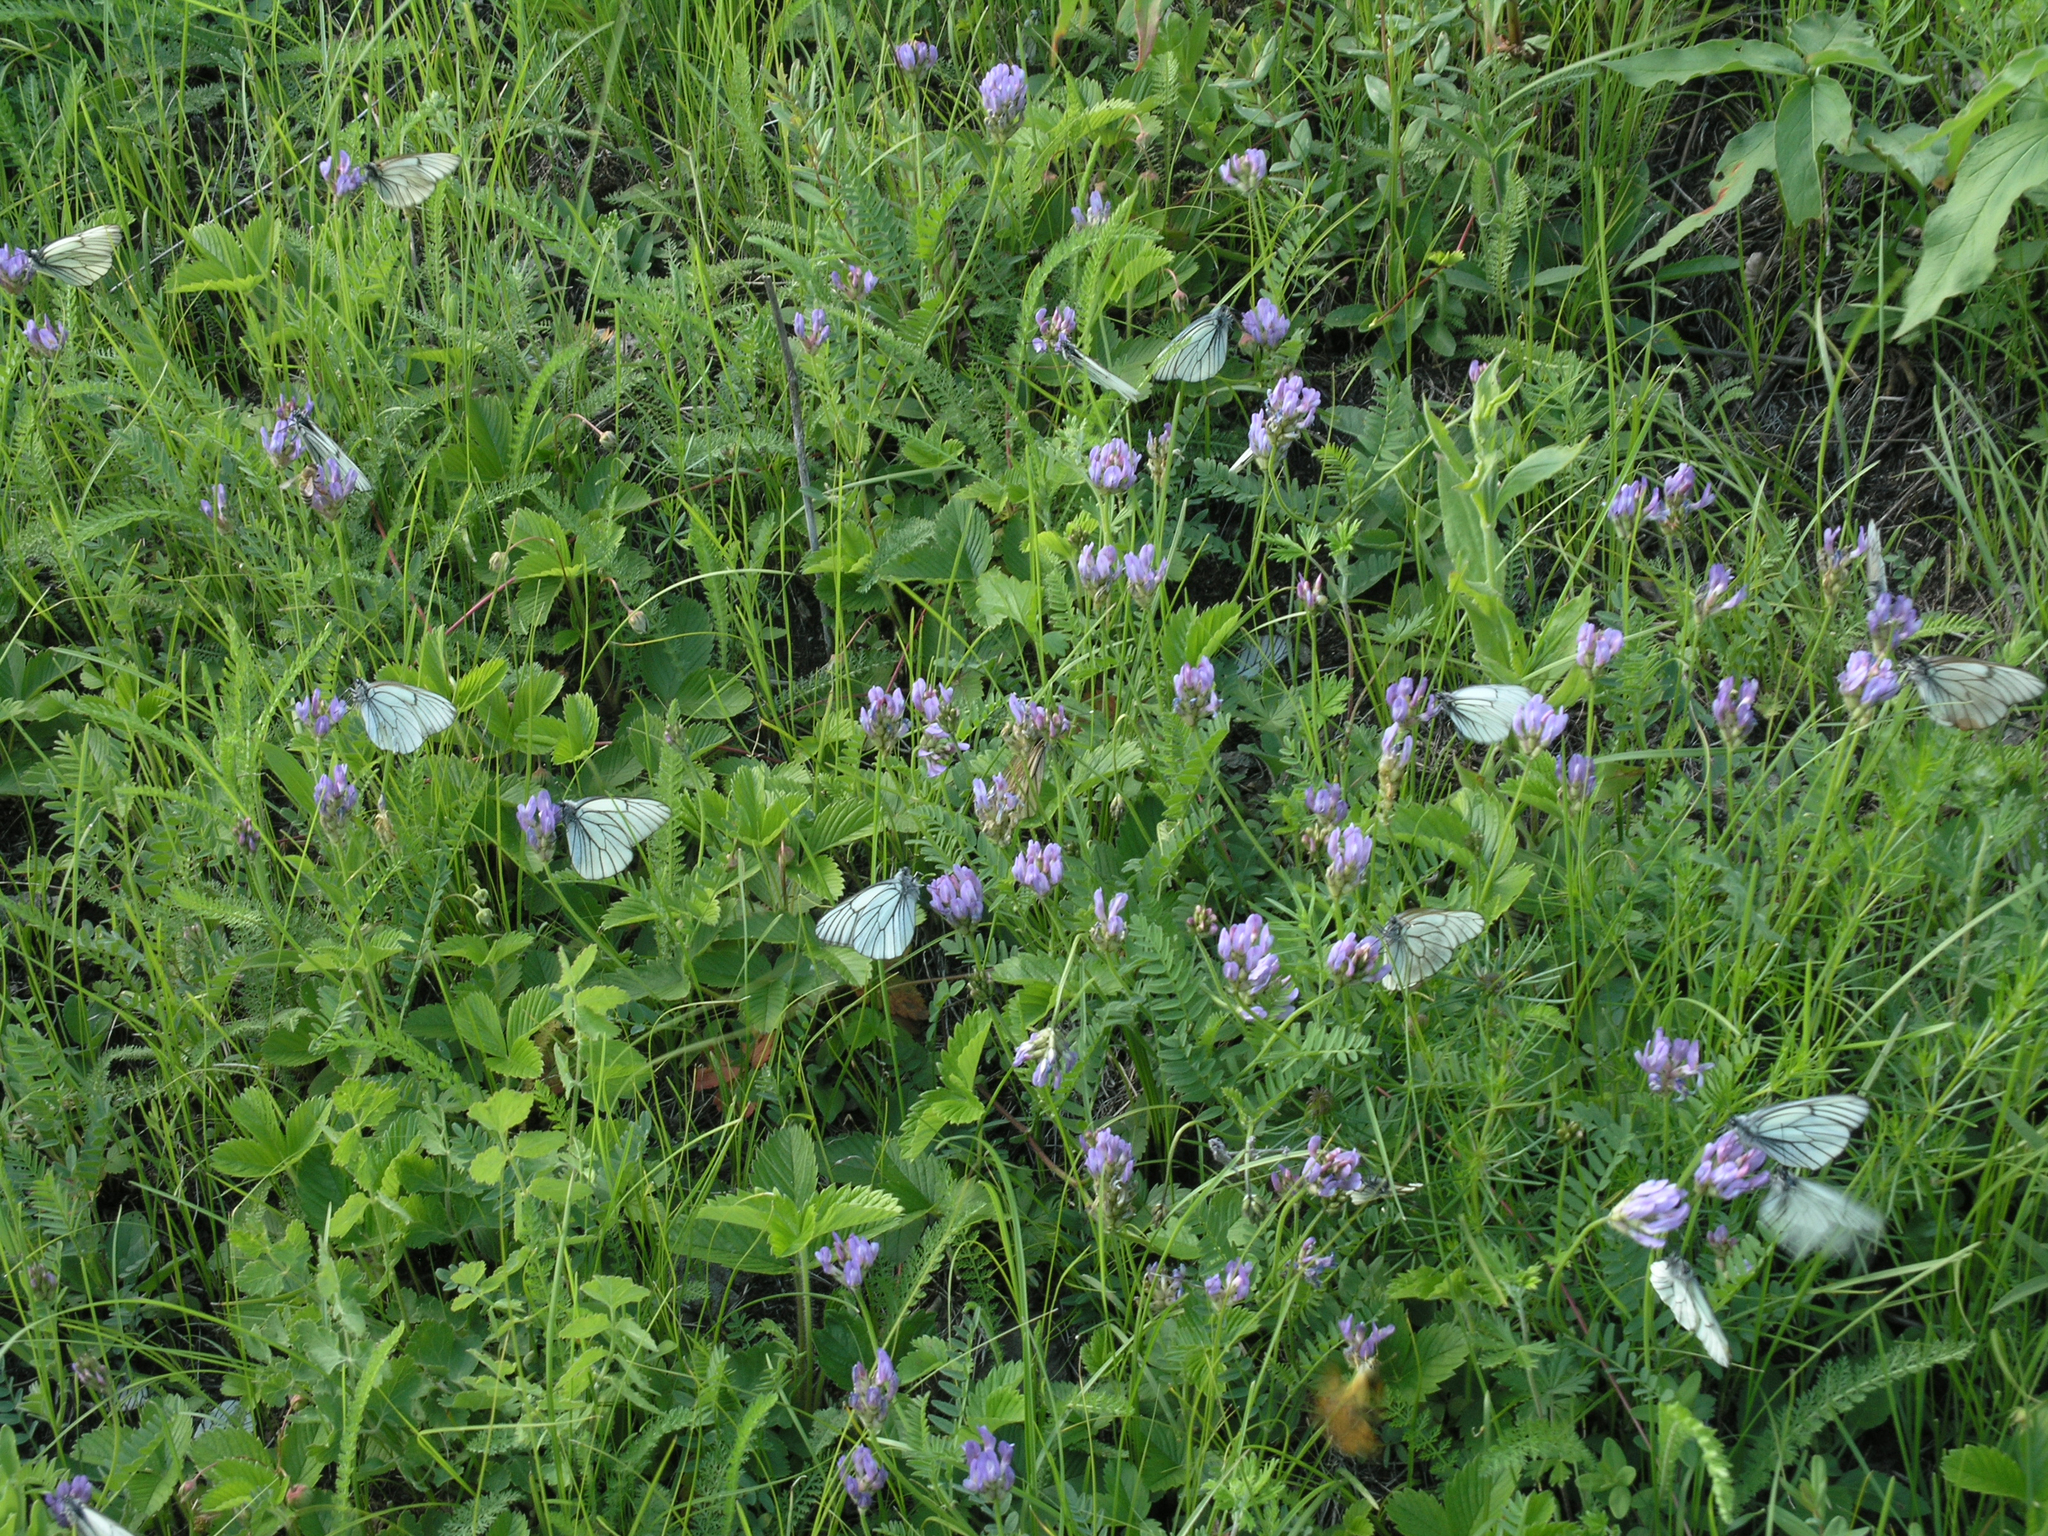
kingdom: Animalia
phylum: Arthropoda
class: Insecta
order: Lepidoptera
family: Pieridae
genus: Aporia
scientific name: Aporia crataegi
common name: Black-veined white
